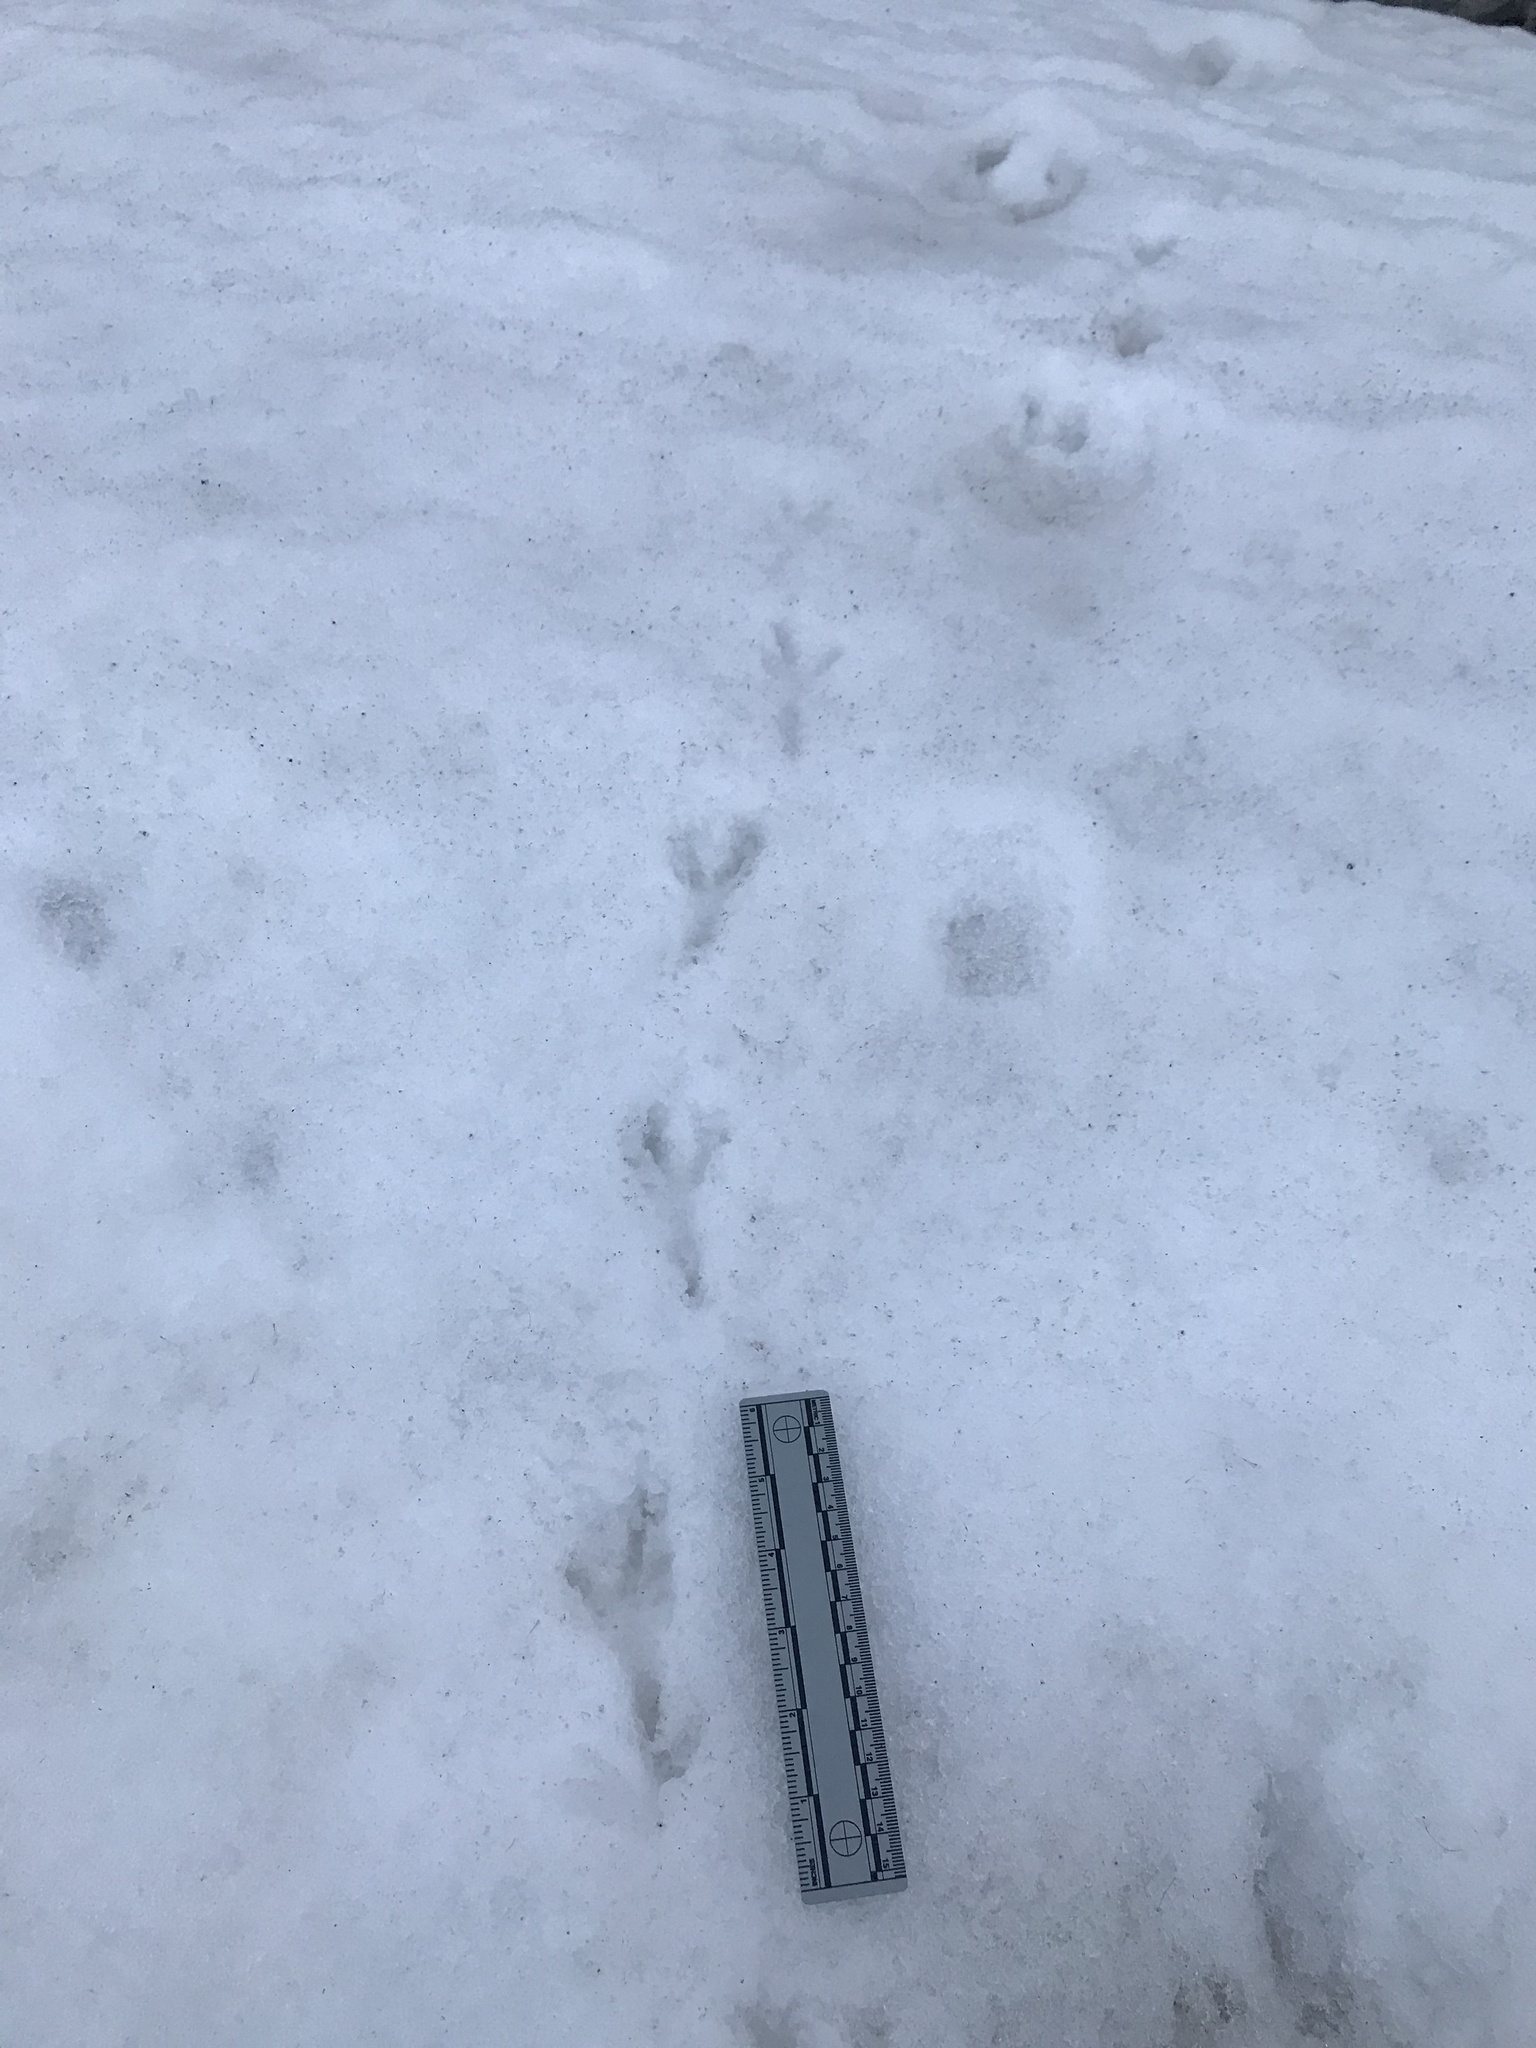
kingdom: Animalia
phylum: Chordata
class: Aves
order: Passeriformes
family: Corvidae
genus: Corvus
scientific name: Corvus brachyrhynchos
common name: American crow
